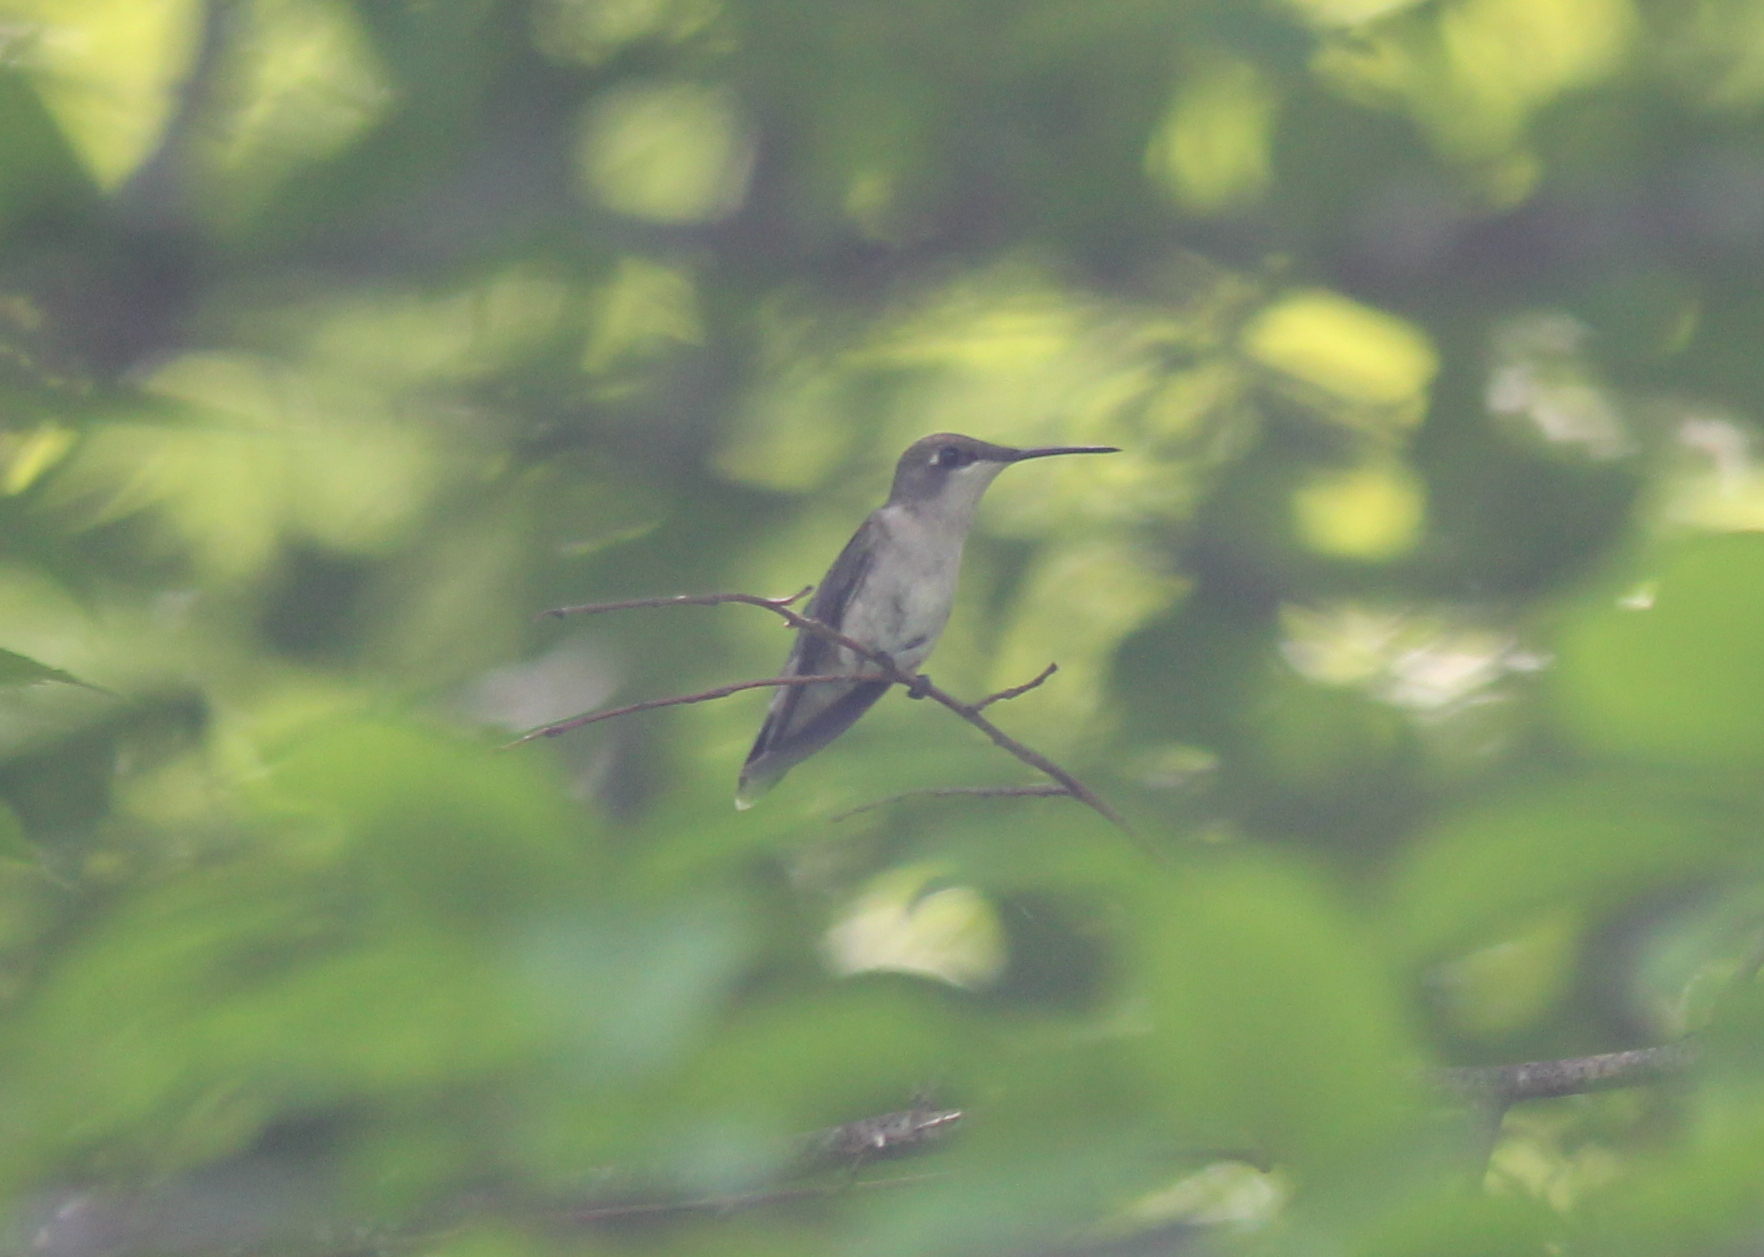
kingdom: Animalia
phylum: Chordata
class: Aves
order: Apodiformes
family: Trochilidae
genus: Archilochus
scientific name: Archilochus colubris
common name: Ruby-throated hummingbird
